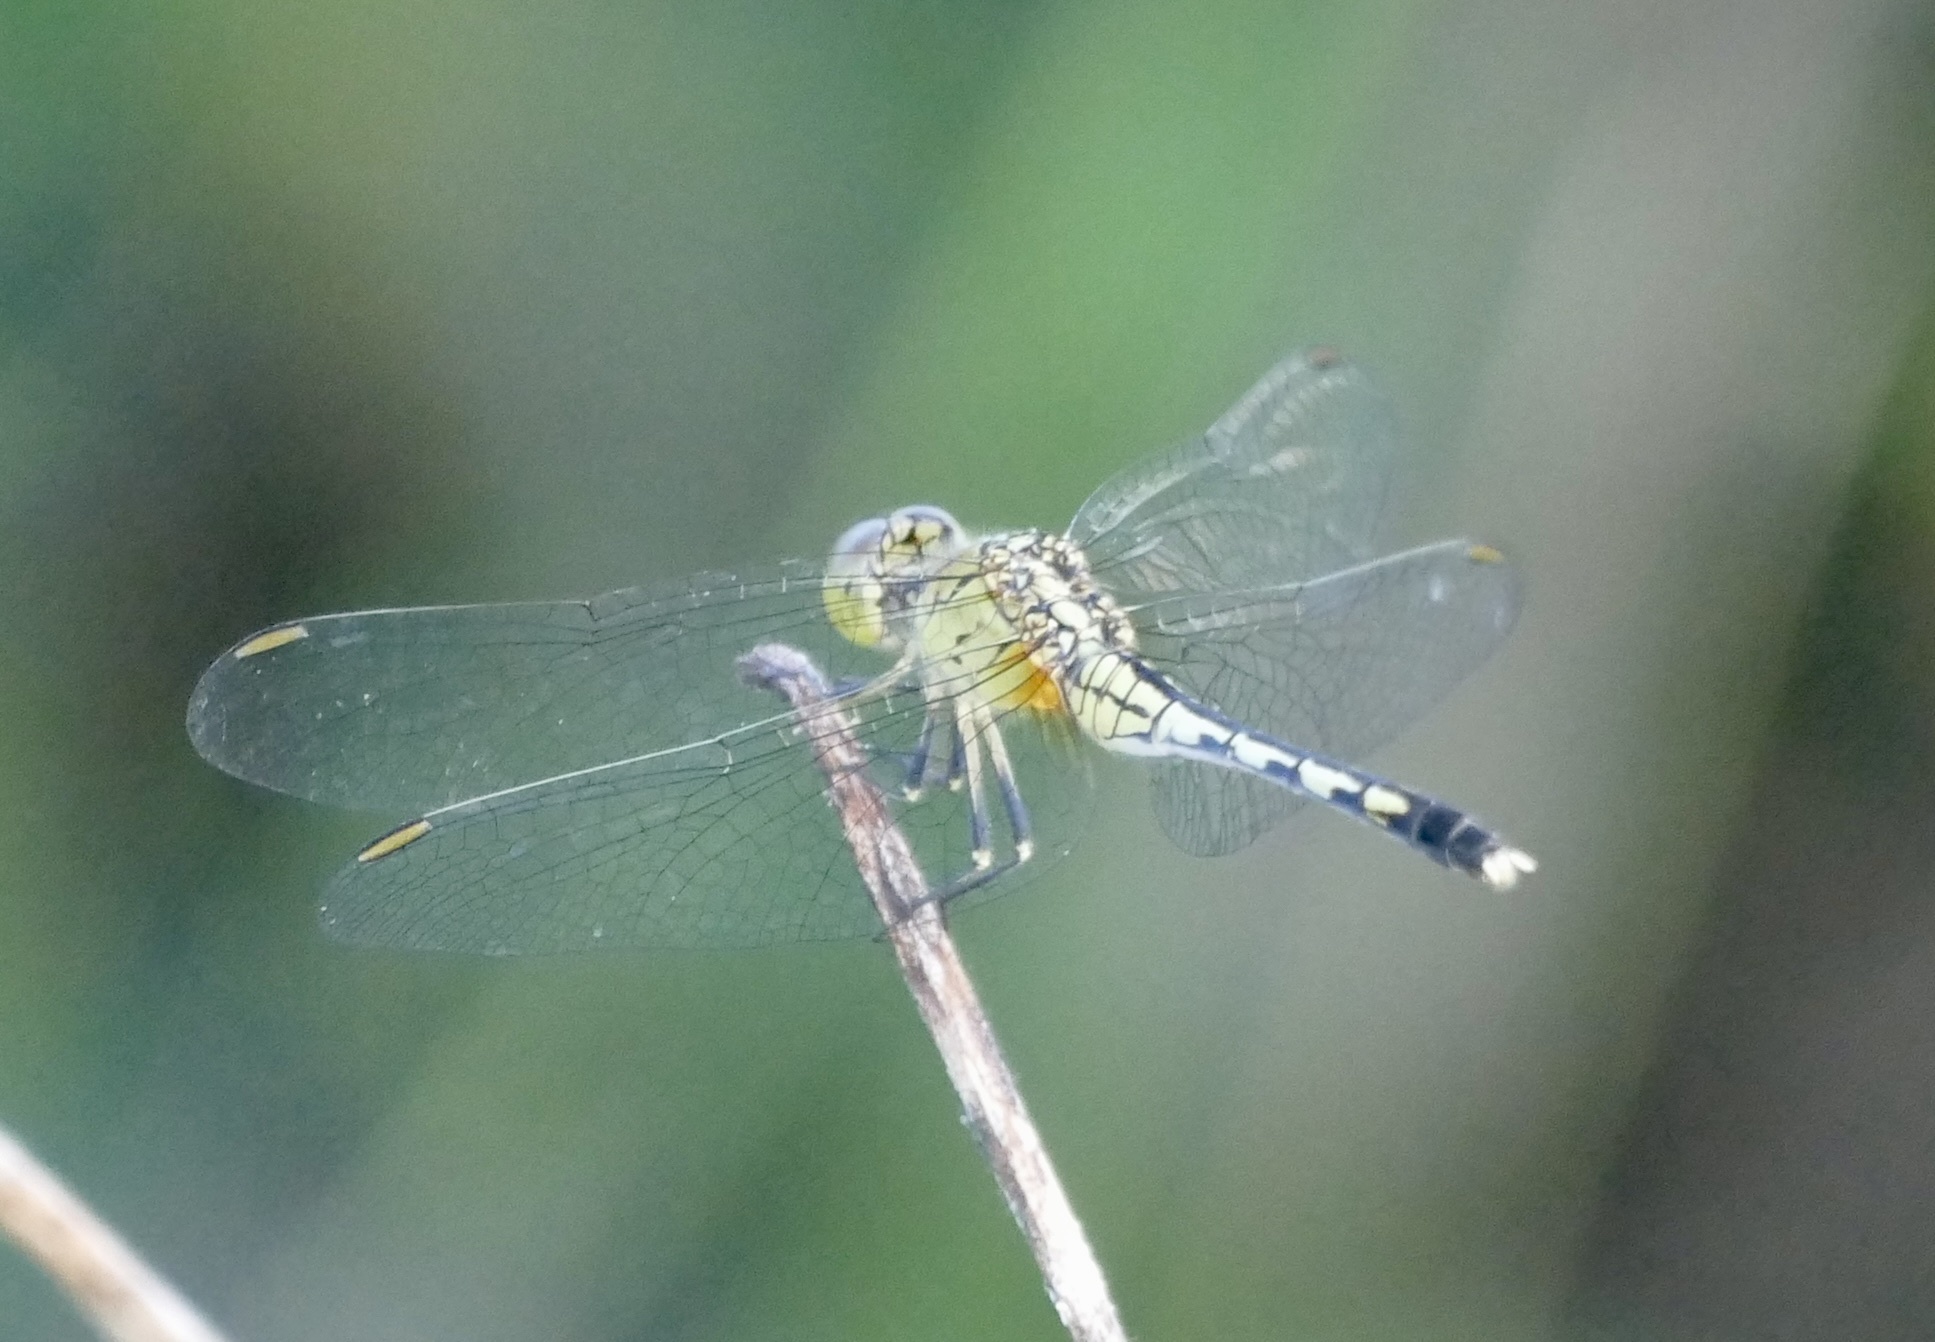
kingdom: Animalia
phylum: Arthropoda
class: Insecta
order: Odonata
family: Libellulidae
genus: Diplacodes
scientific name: Diplacodes trivialis
